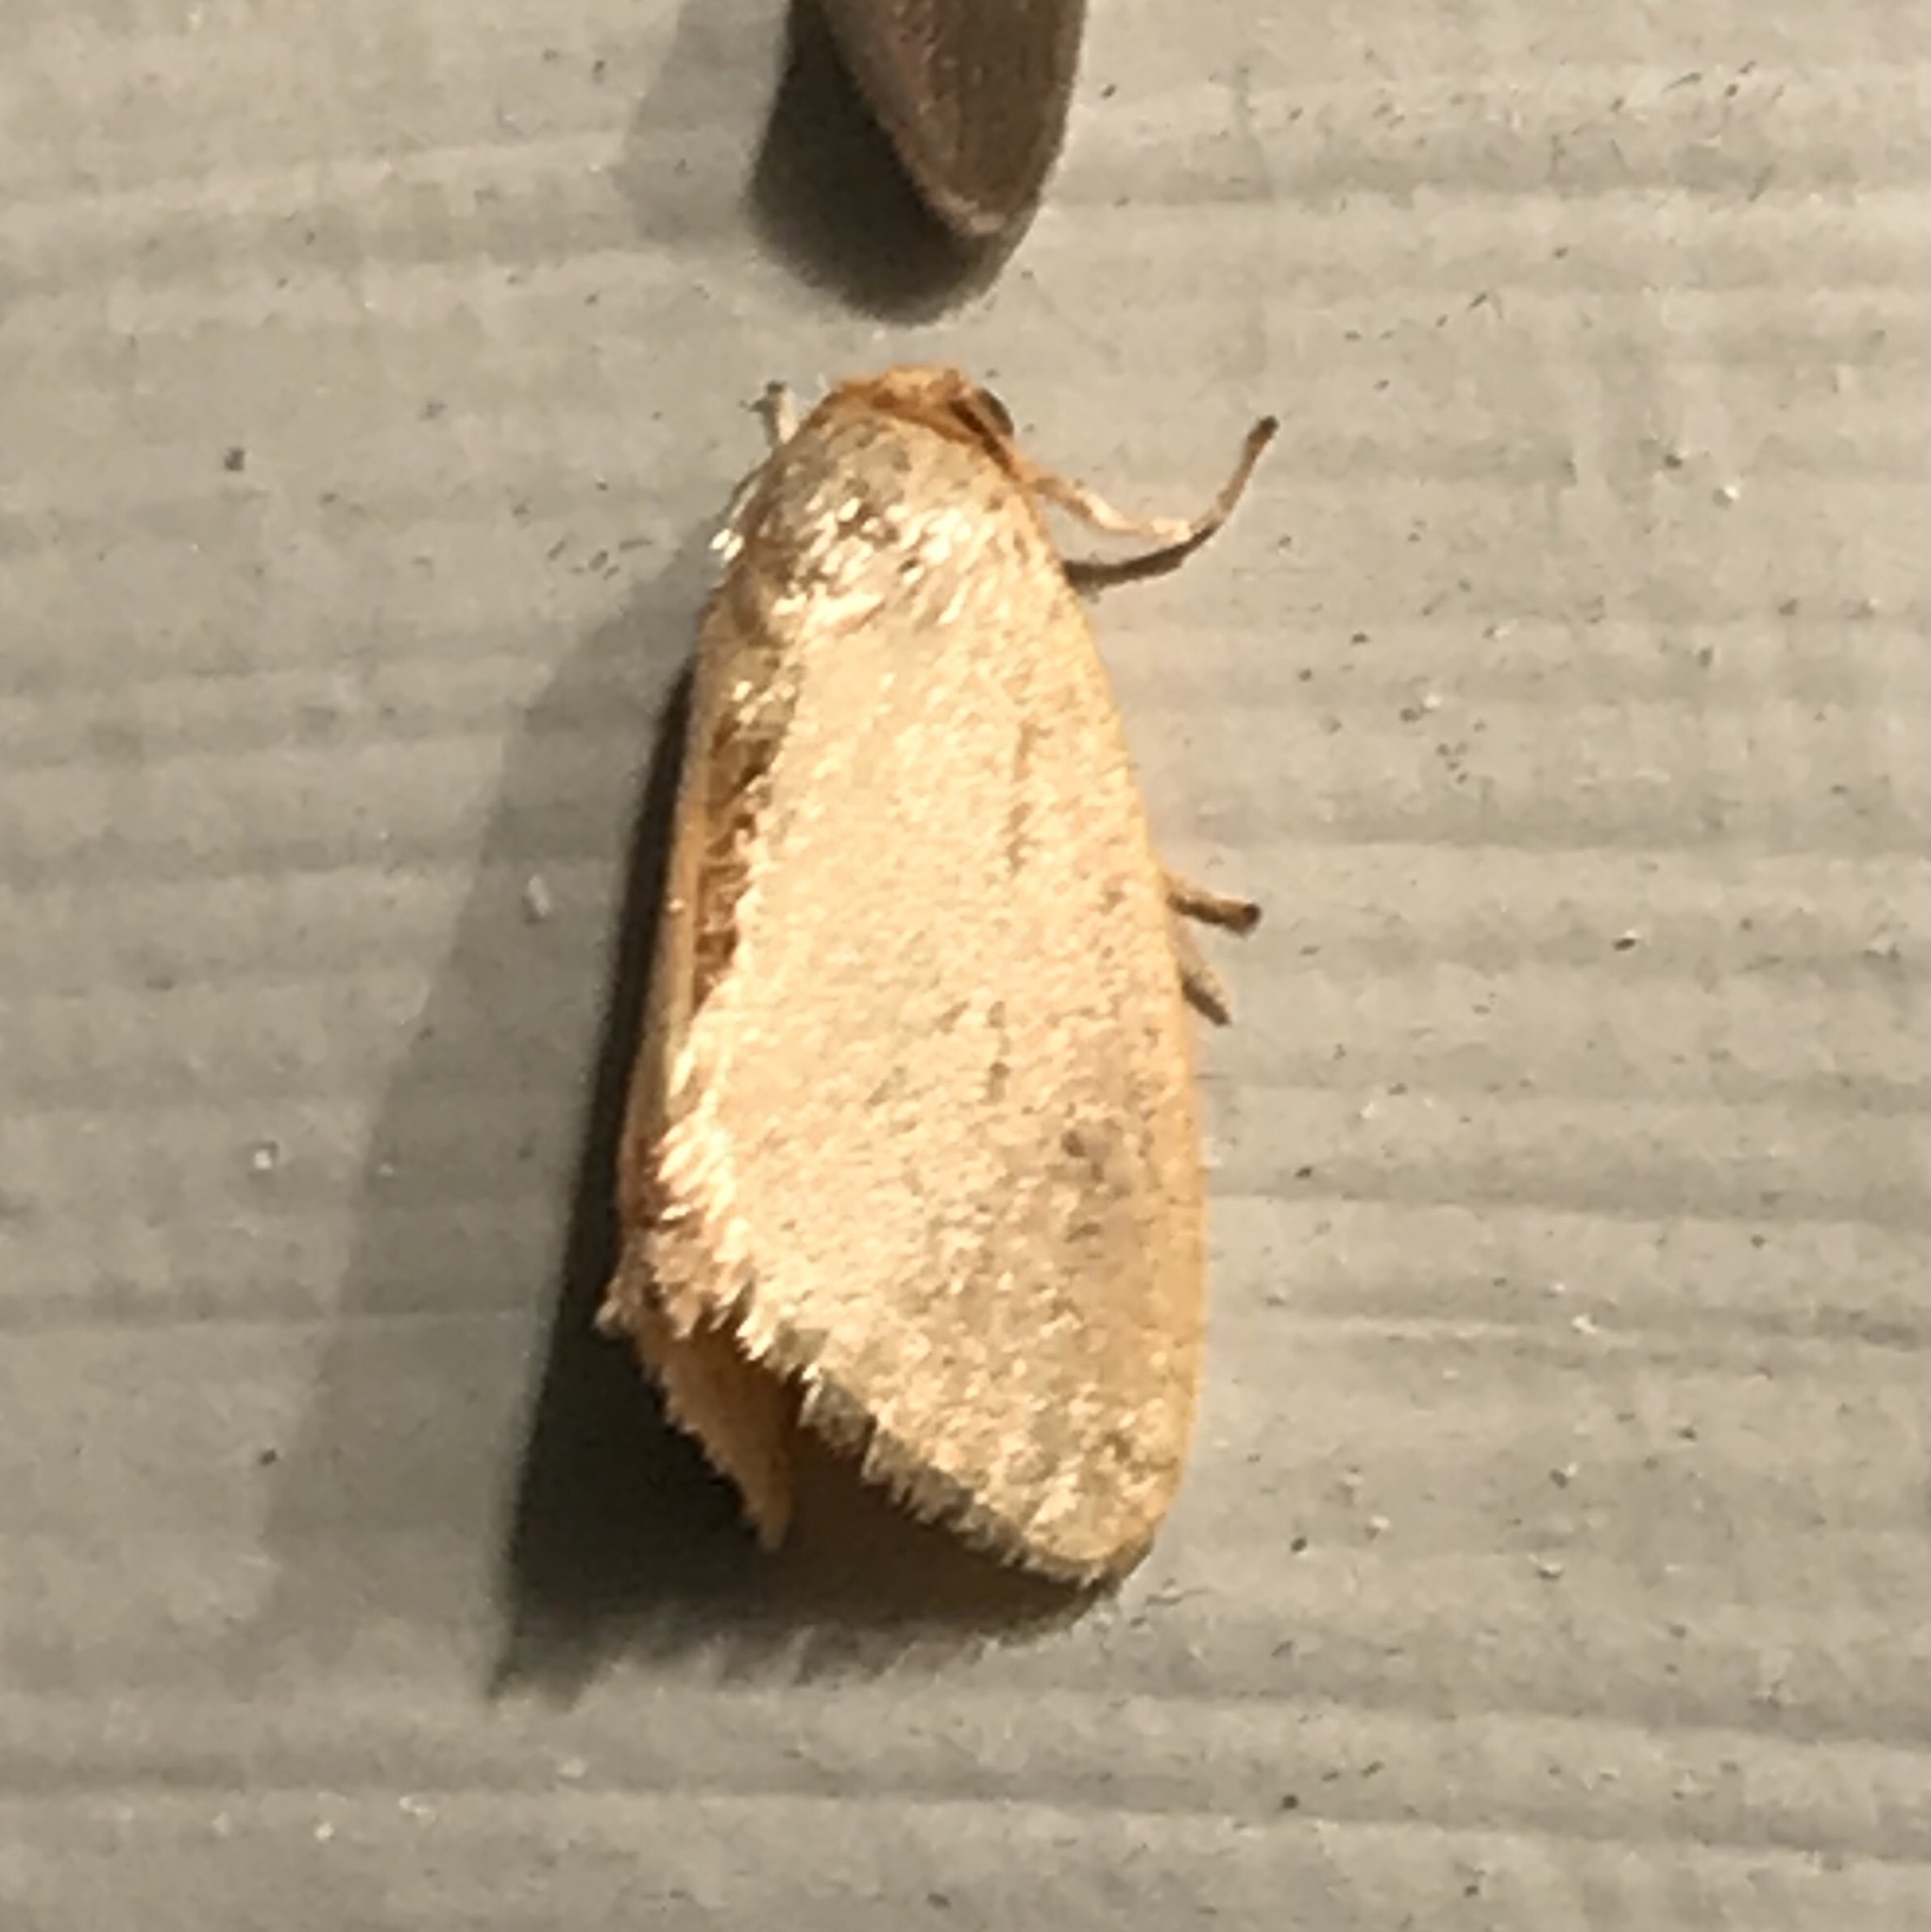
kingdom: Animalia
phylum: Arthropoda
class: Insecta
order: Lepidoptera
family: Limacodidae
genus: Tortricidia
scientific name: Tortricidia pallida
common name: Red-crossed button slug moth
